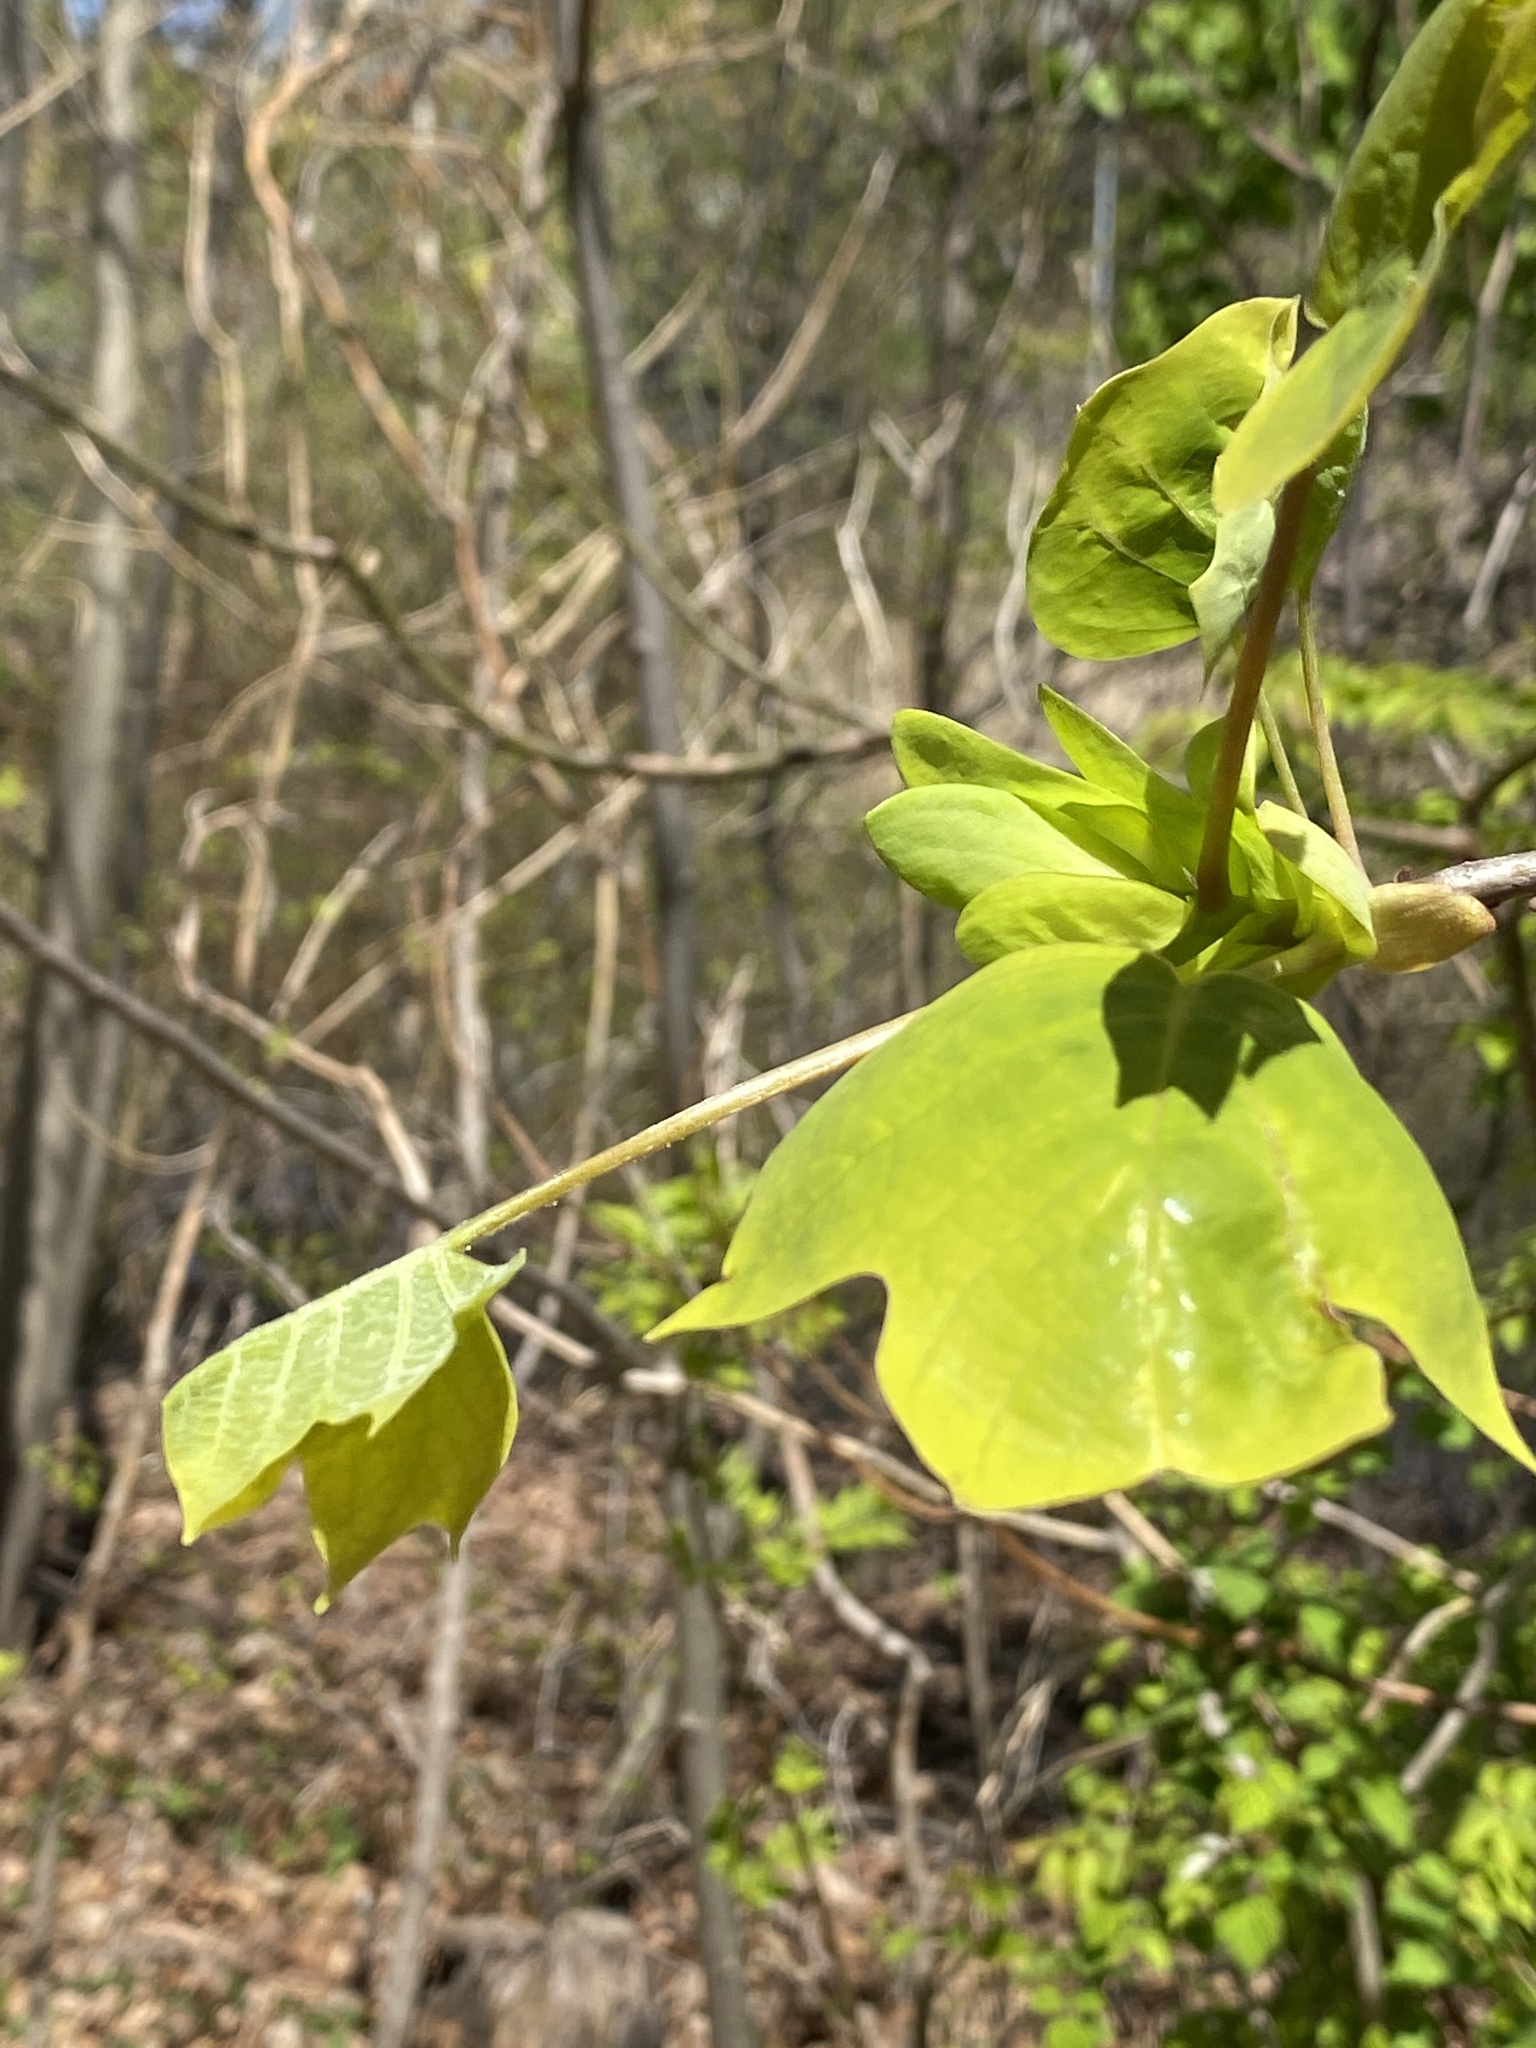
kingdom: Plantae
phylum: Tracheophyta
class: Magnoliopsida
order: Magnoliales
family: Magnoliaceae
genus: Liriodendron
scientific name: Liriodendron tulipifera
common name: Tulip tree
